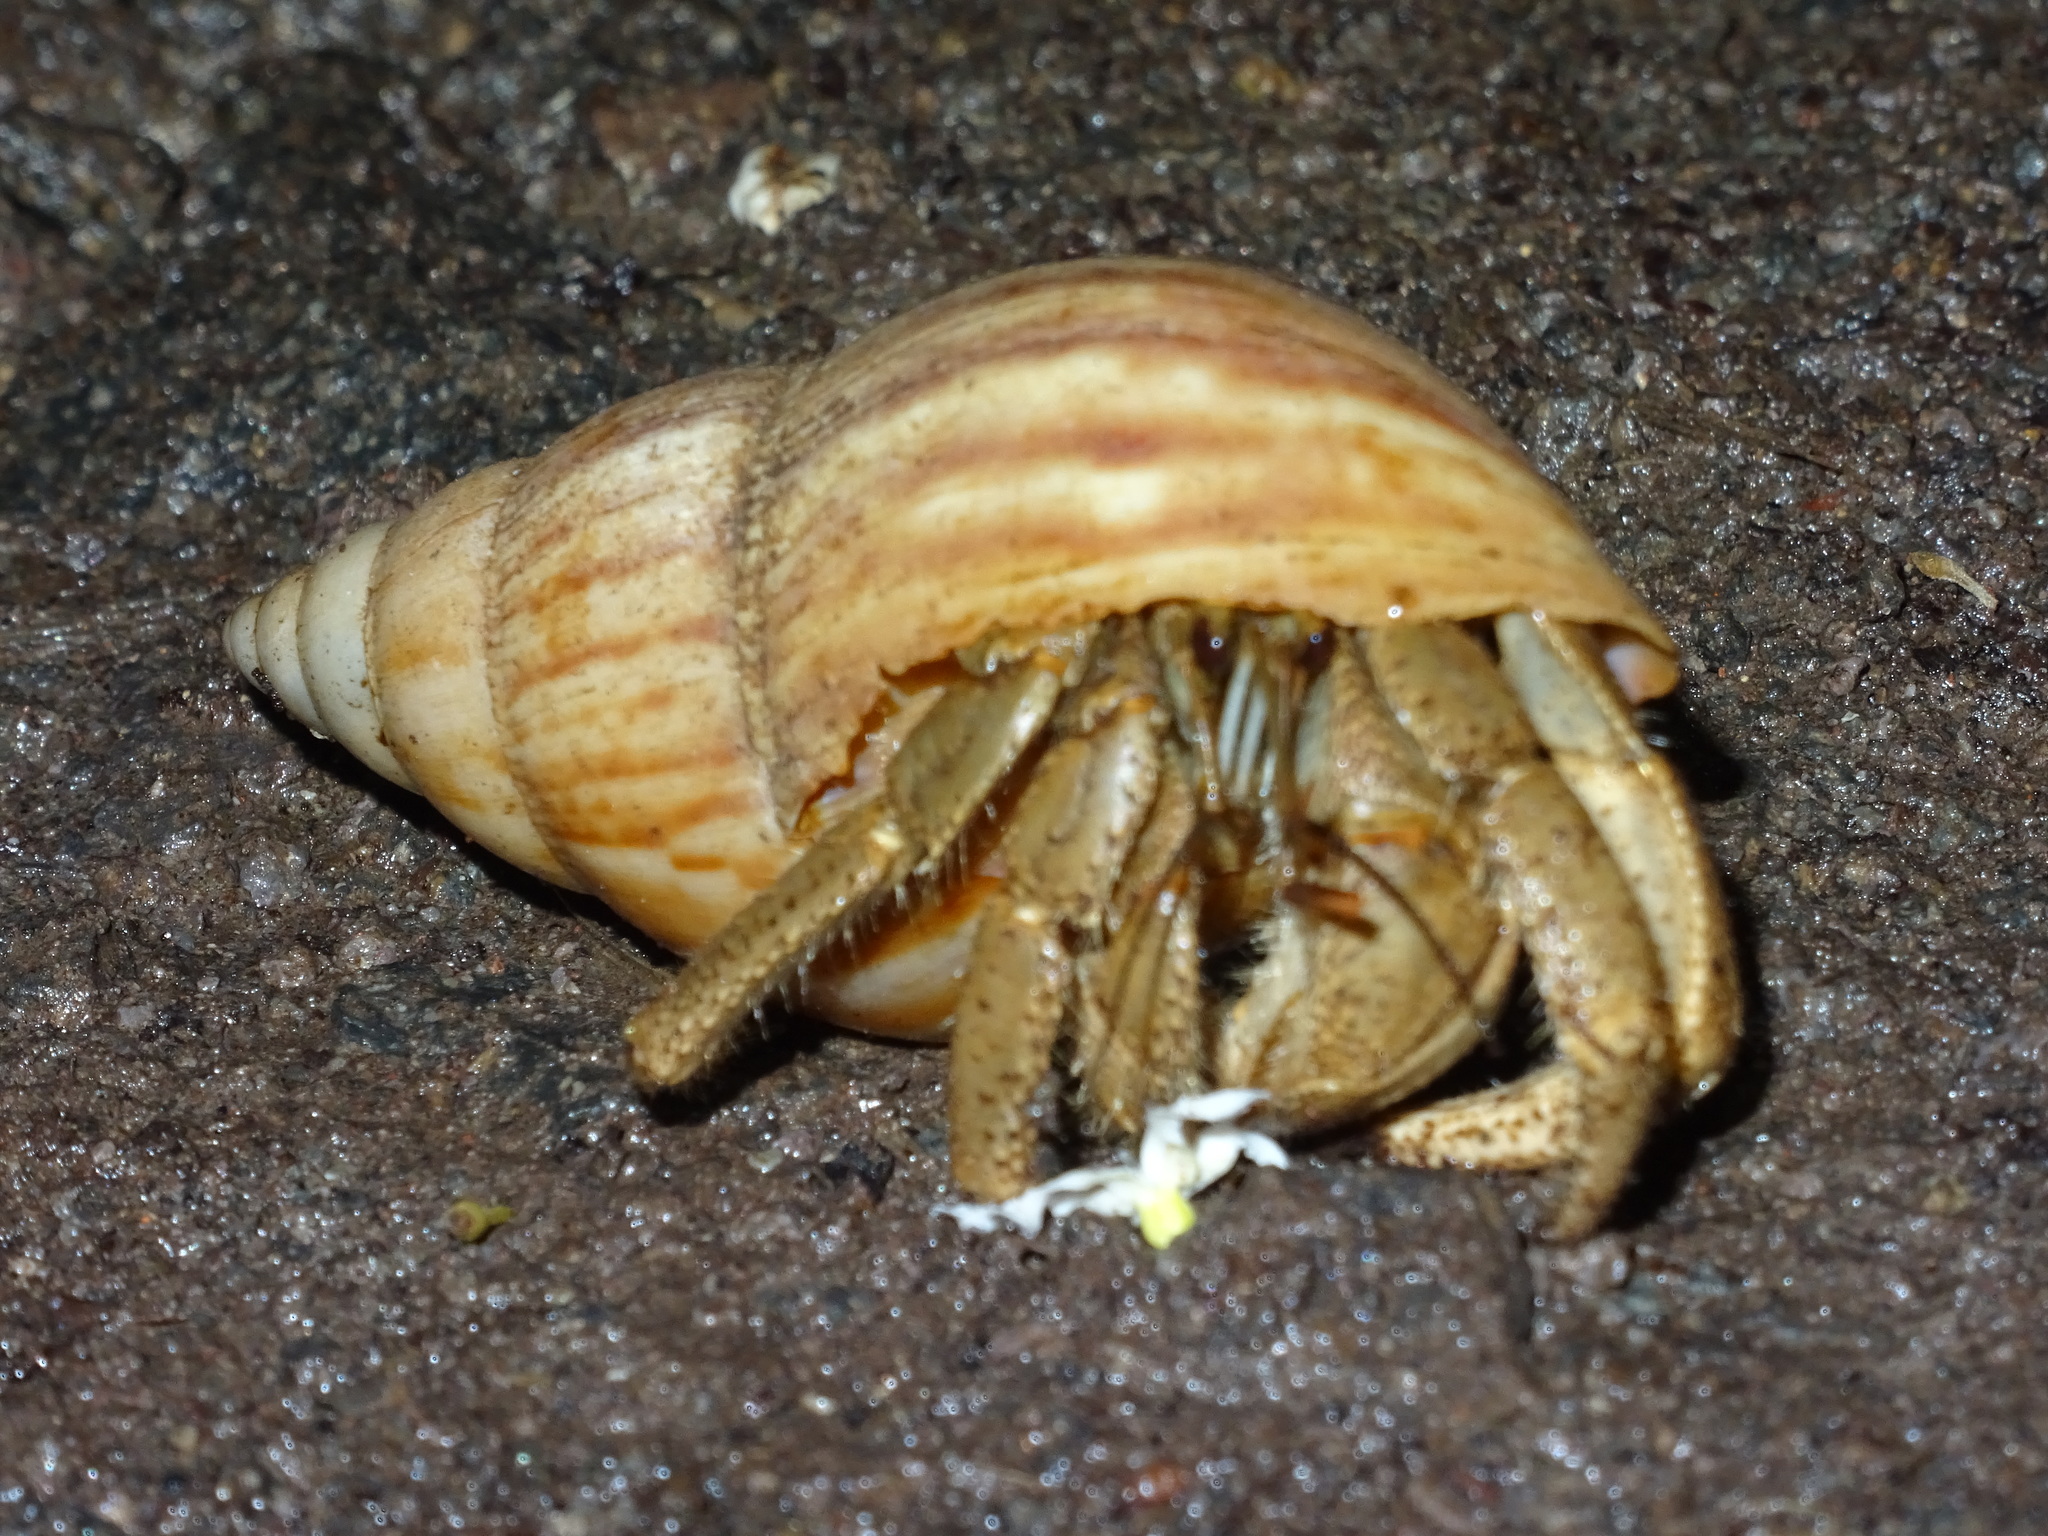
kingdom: Animalia
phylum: Arthropoda
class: Malacostraca
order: Decapoda
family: Coenobitidae
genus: Coenobita
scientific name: Coenobita cavipes
